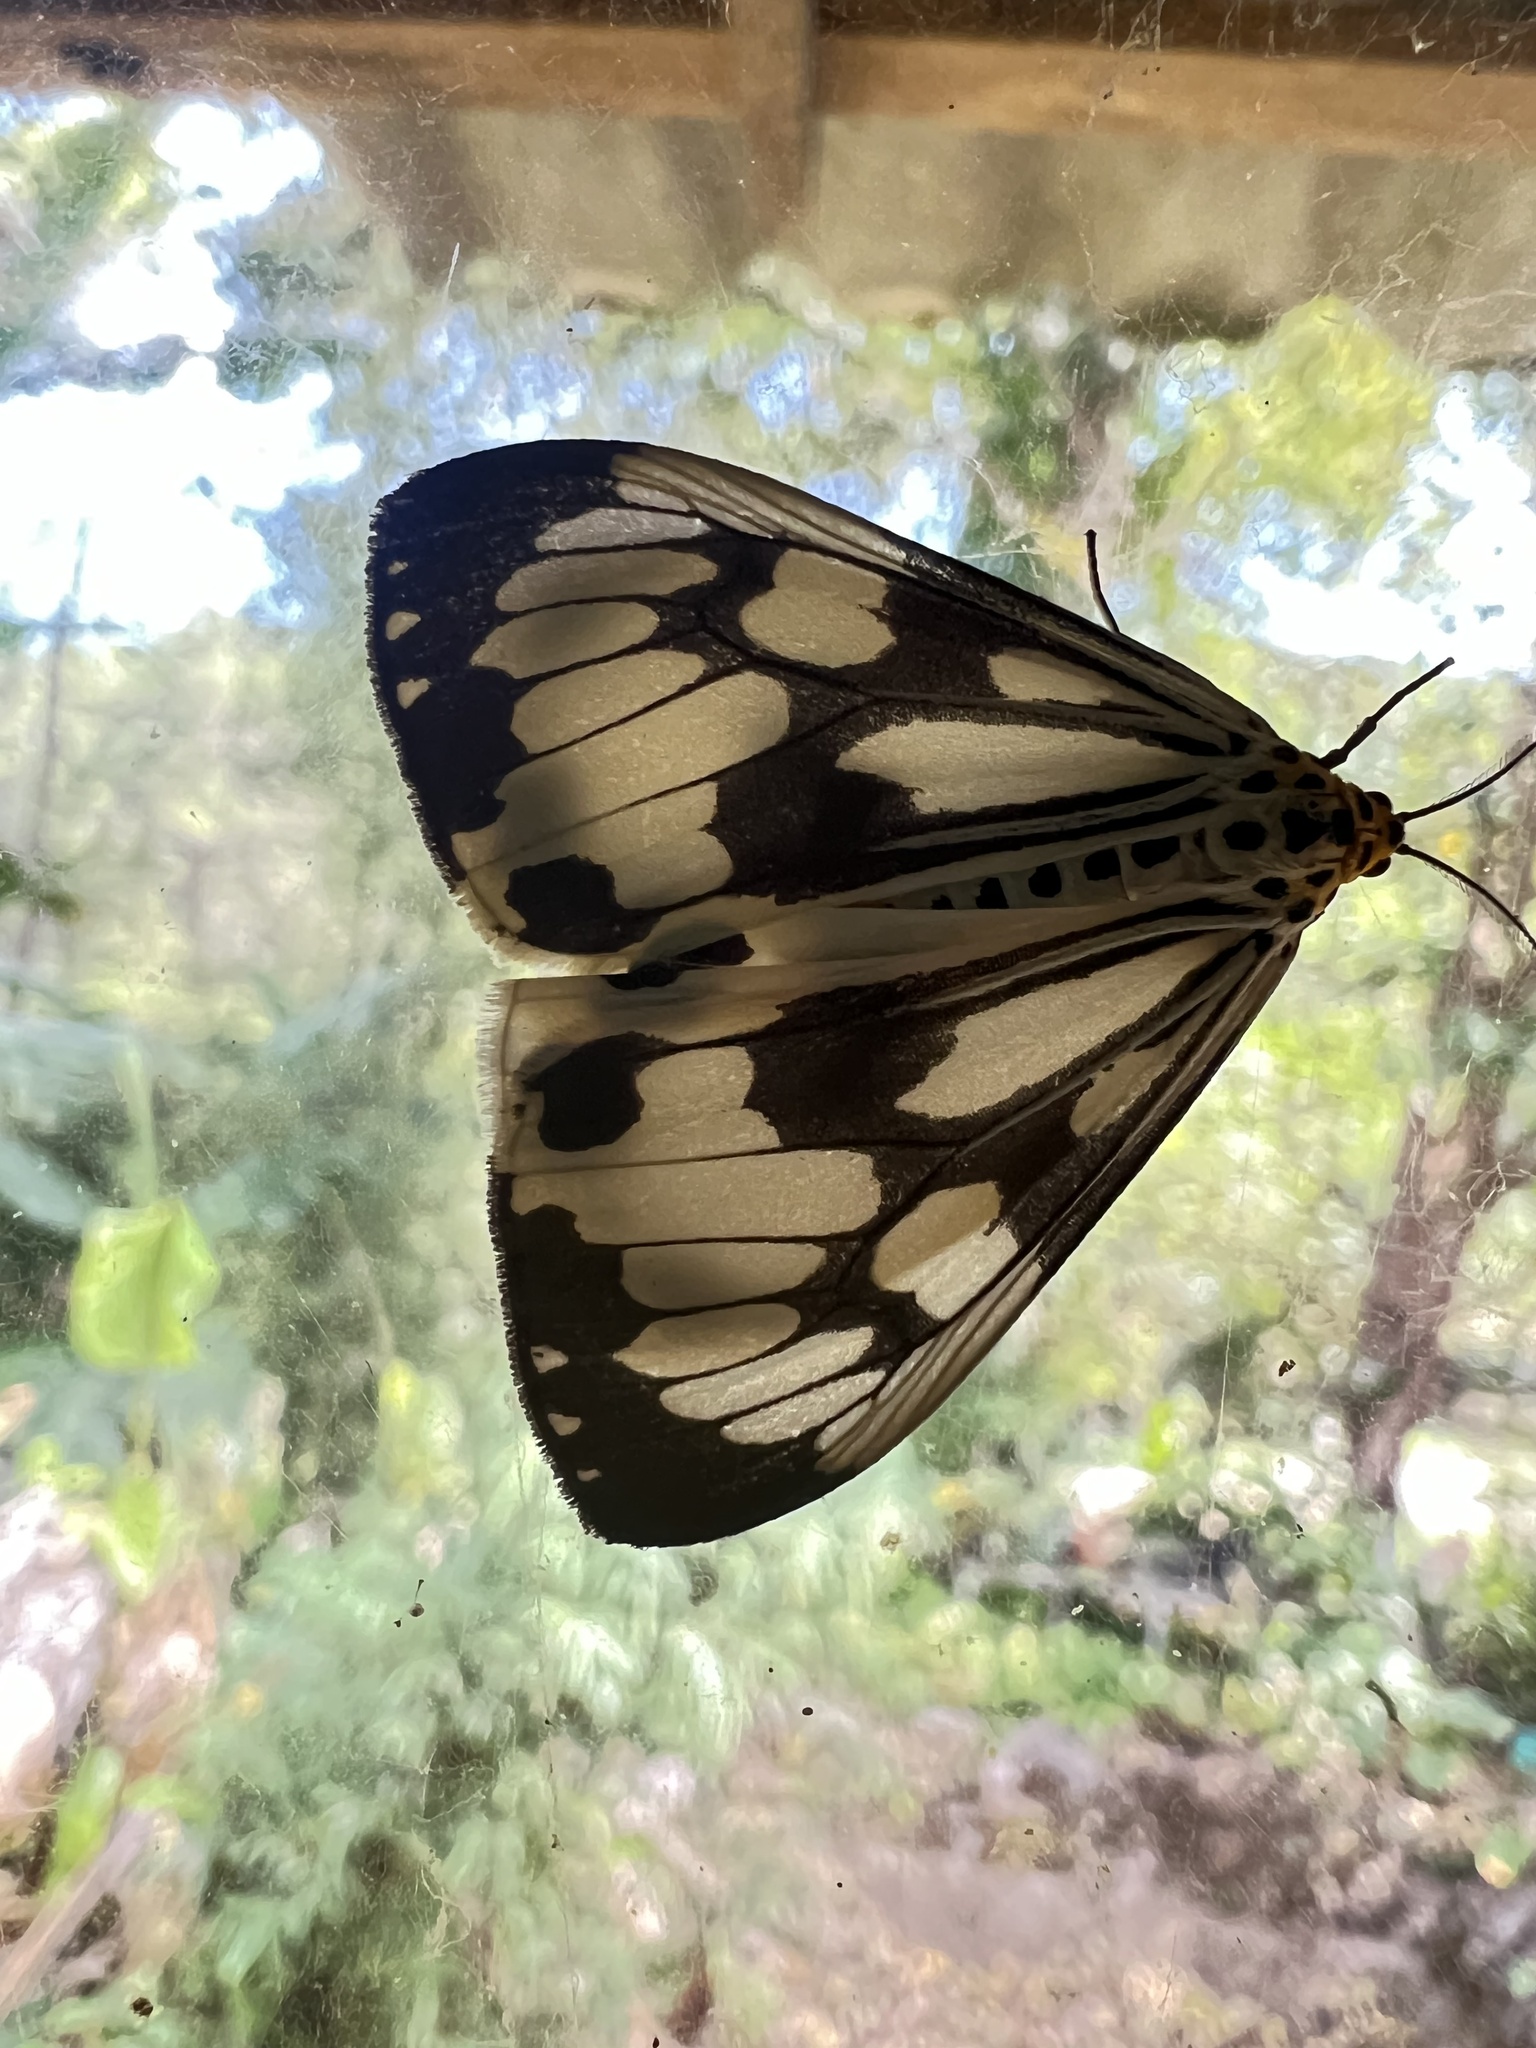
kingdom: Animalia
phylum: Arthropoda
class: Insecta
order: Lepidoptera
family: Erebidae
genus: Nyctemera
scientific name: Nyctemera adversata
